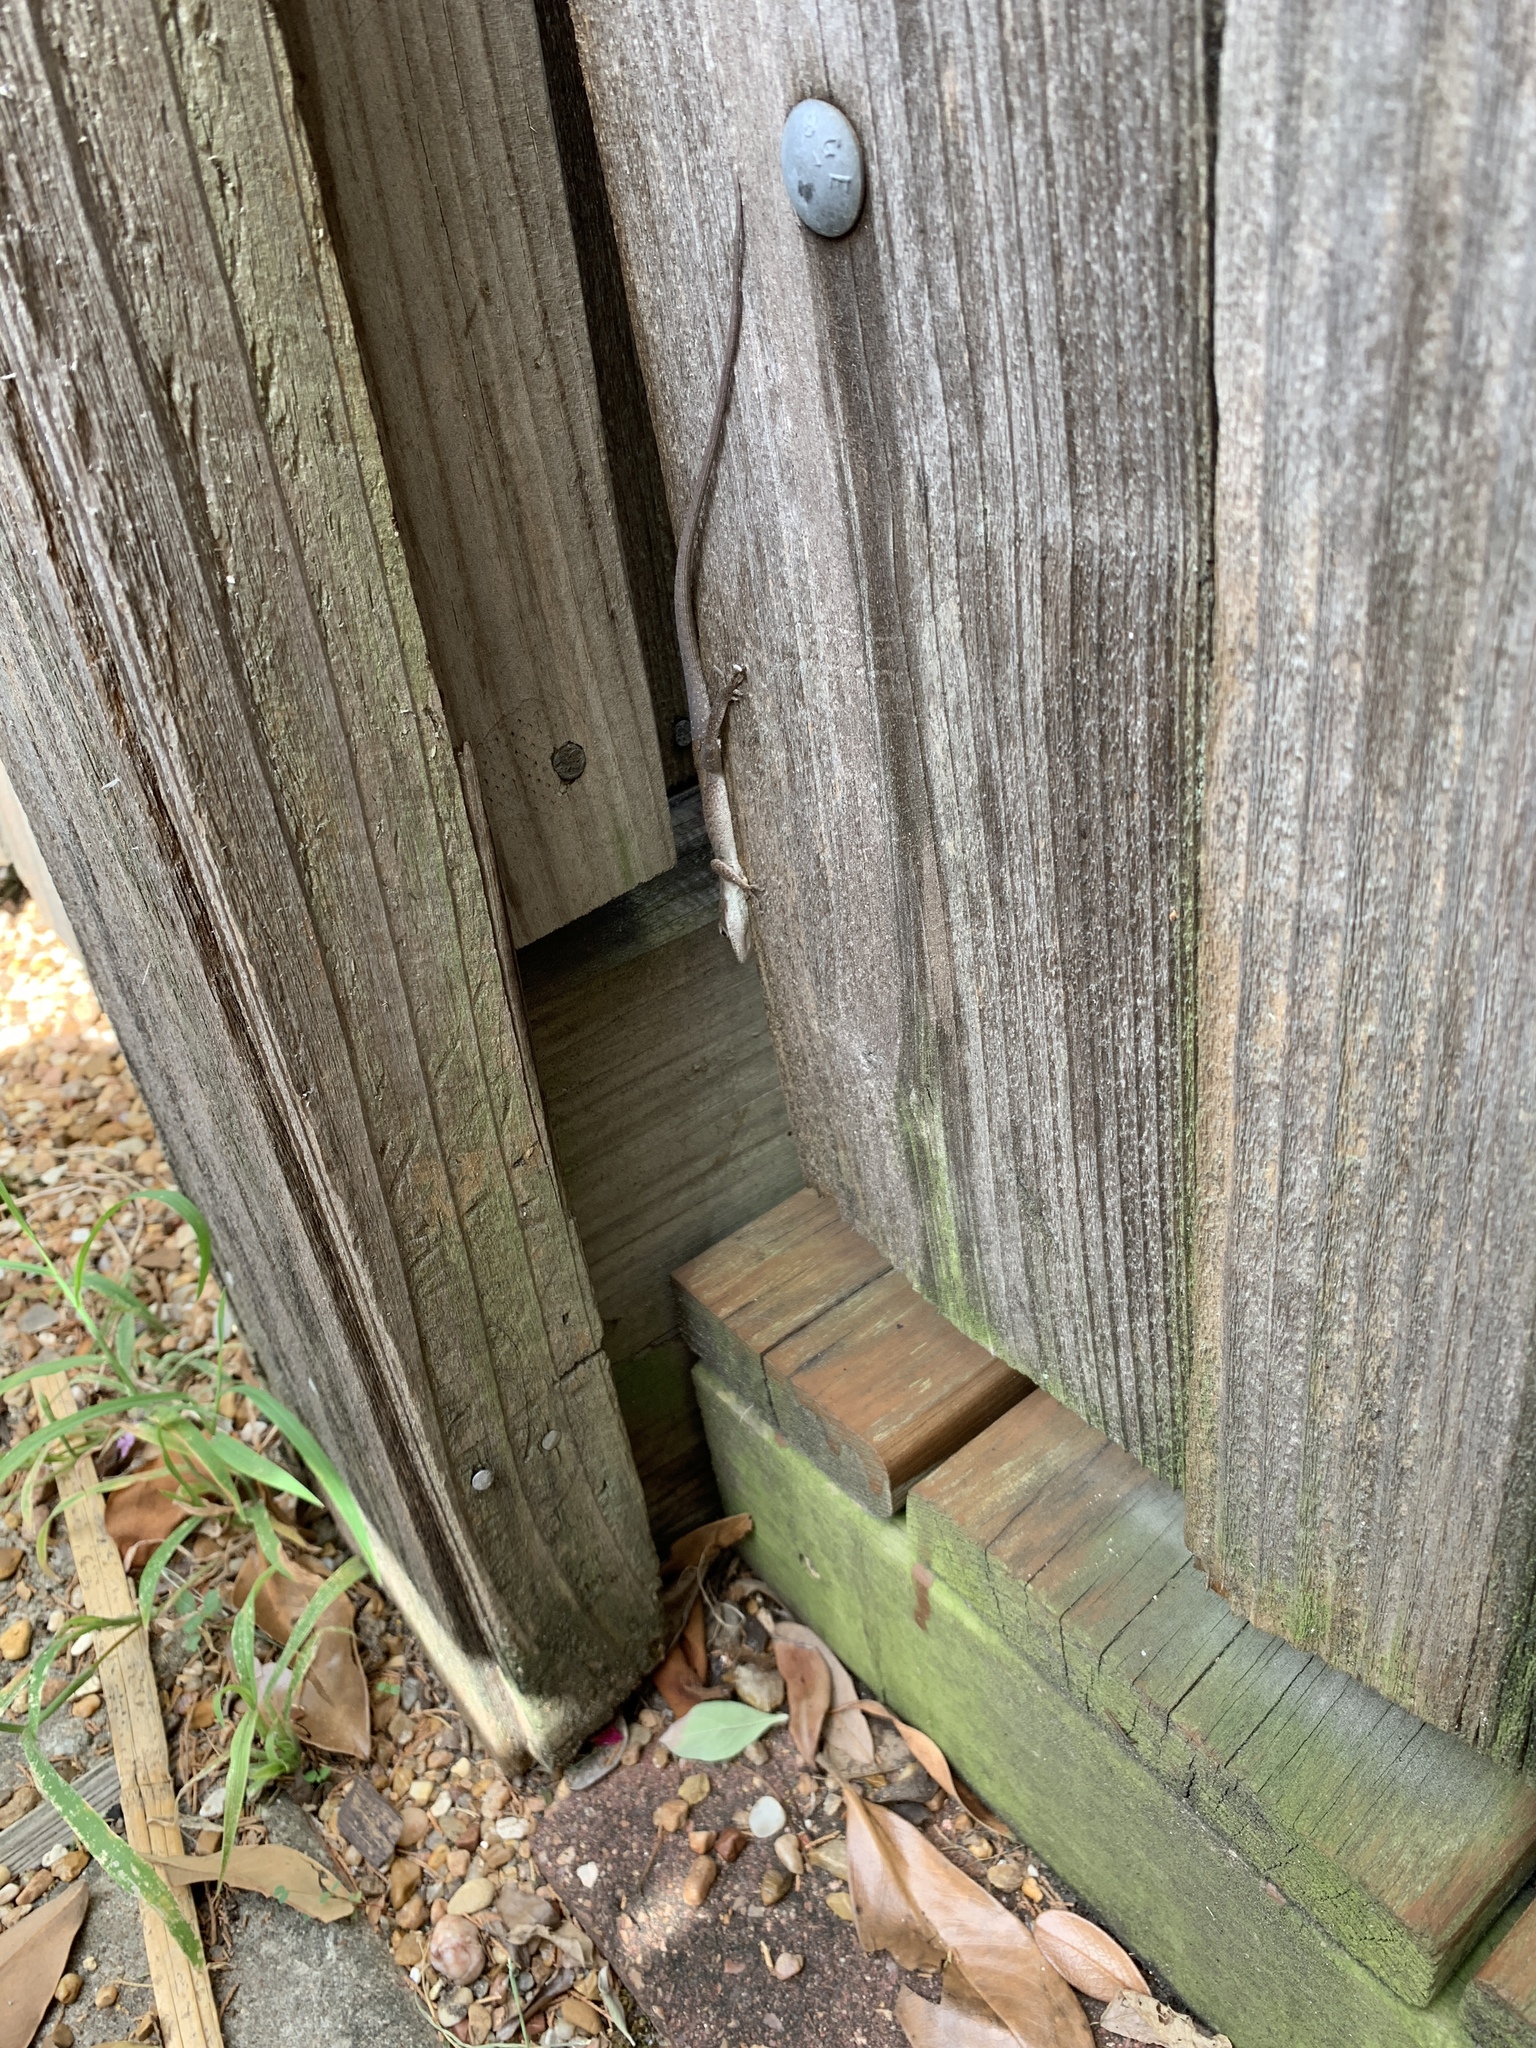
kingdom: Animalia
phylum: Chordata
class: Squamata
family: Dactyloidae
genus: Anolis
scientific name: Anolis carolinensis
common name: Green anole
